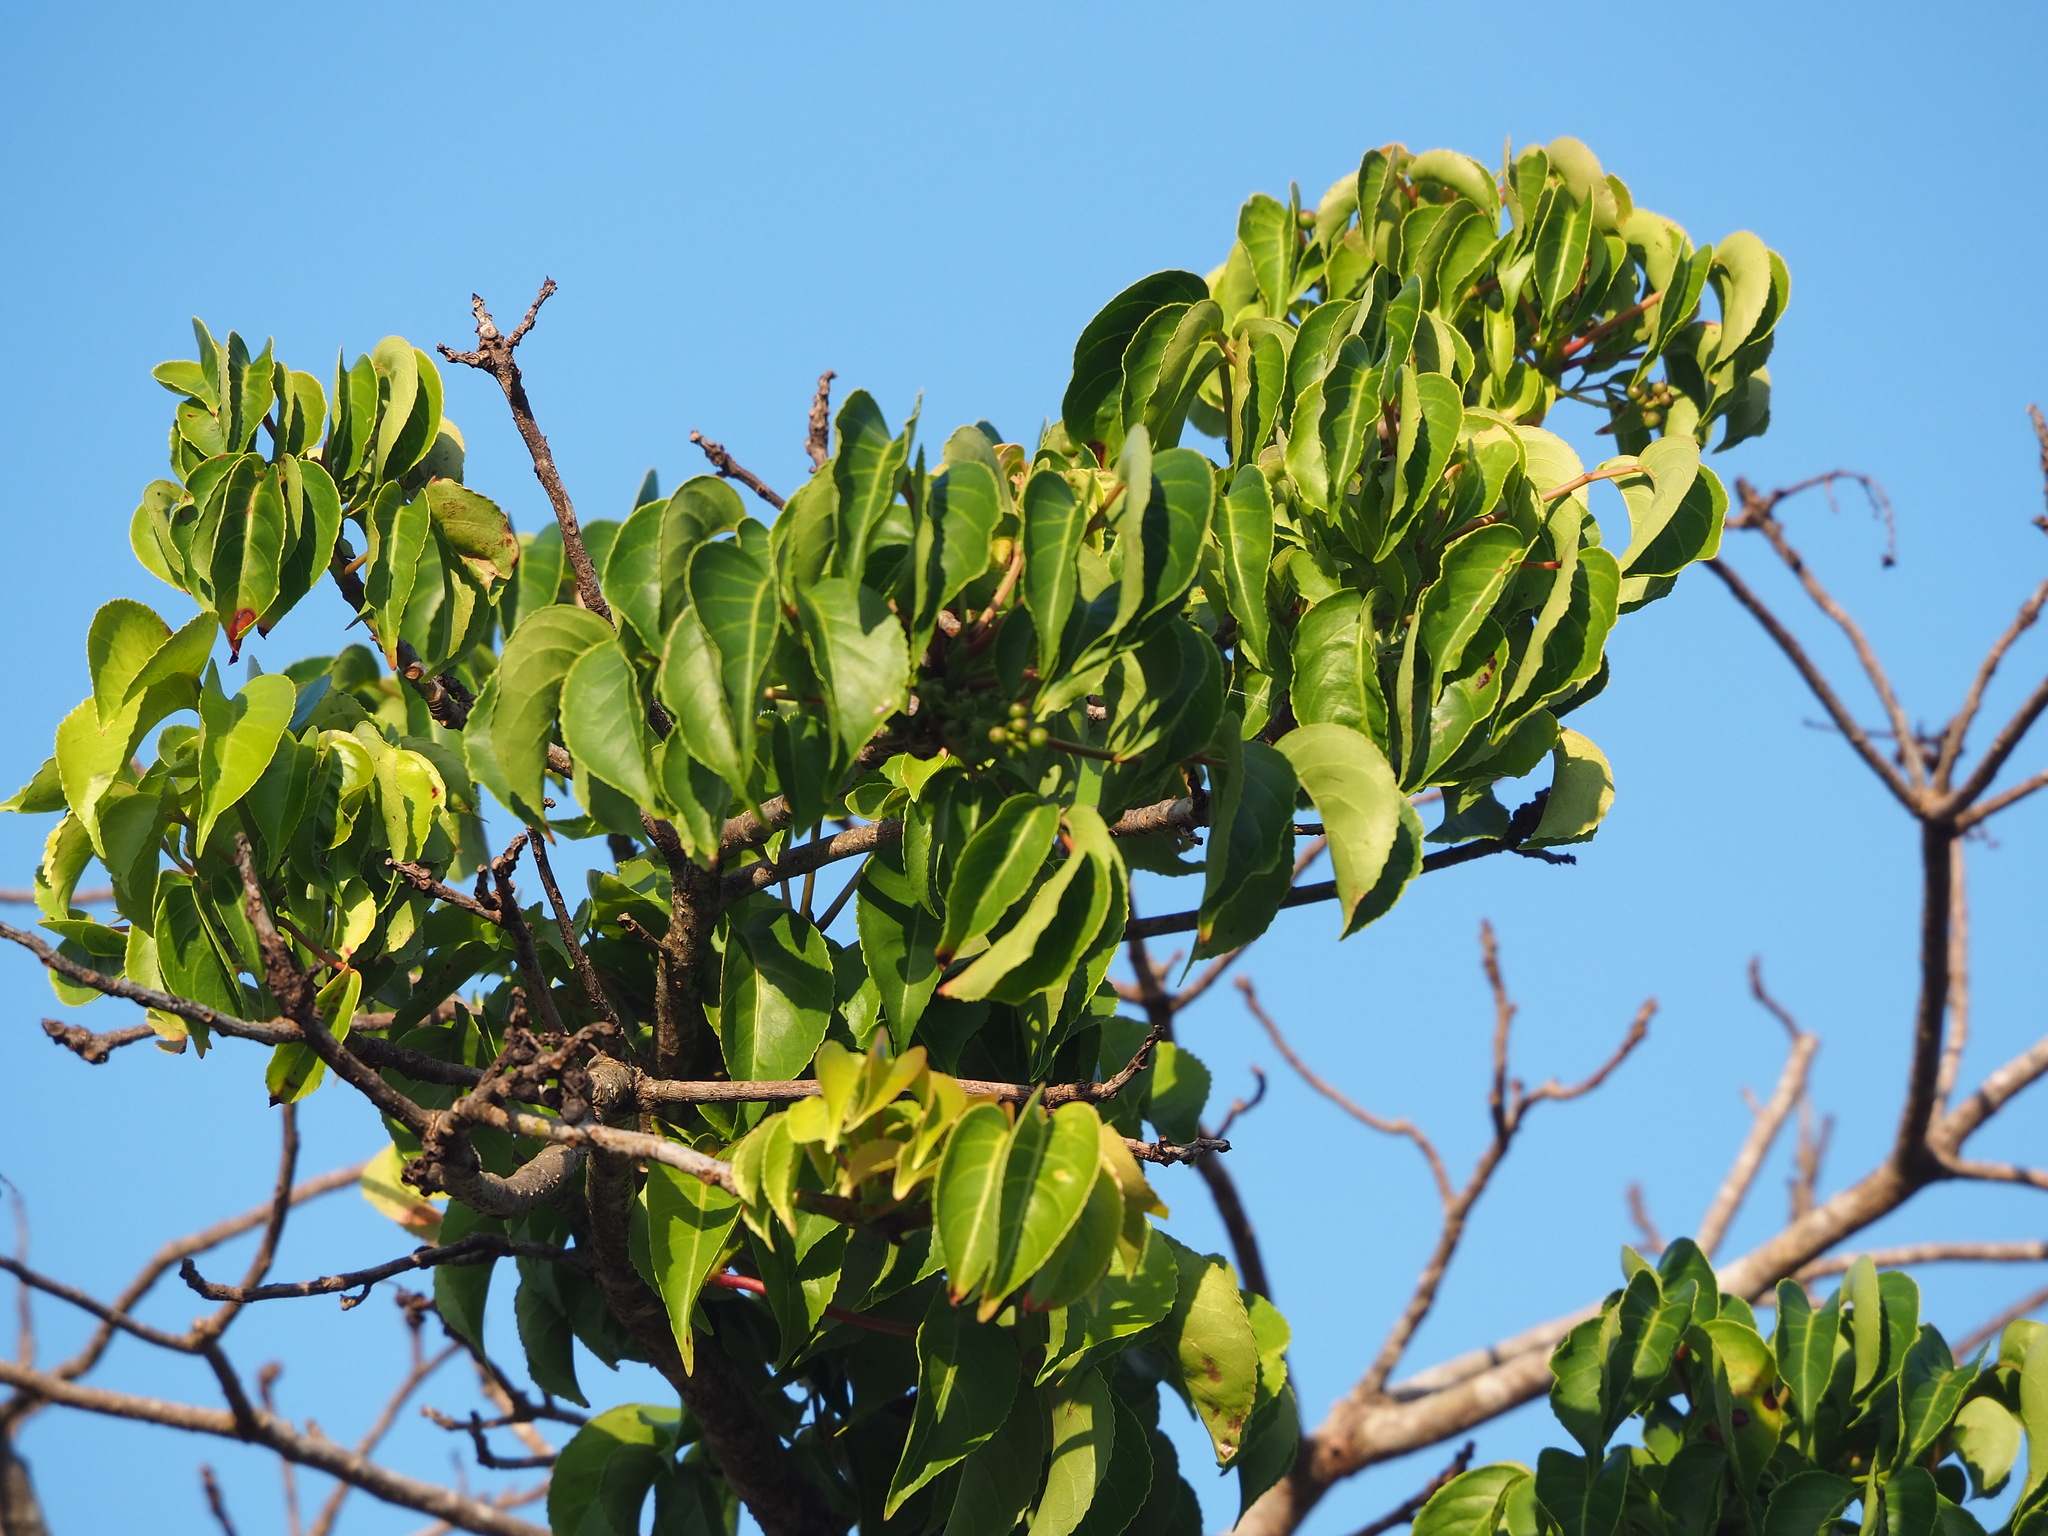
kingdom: Plantae
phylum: Tracheophyta
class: Magnoliopsida
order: Malpighiales
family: Phyllanthaceae
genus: Bischofia
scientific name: Bischofia javanica
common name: Javanese bishopwood
